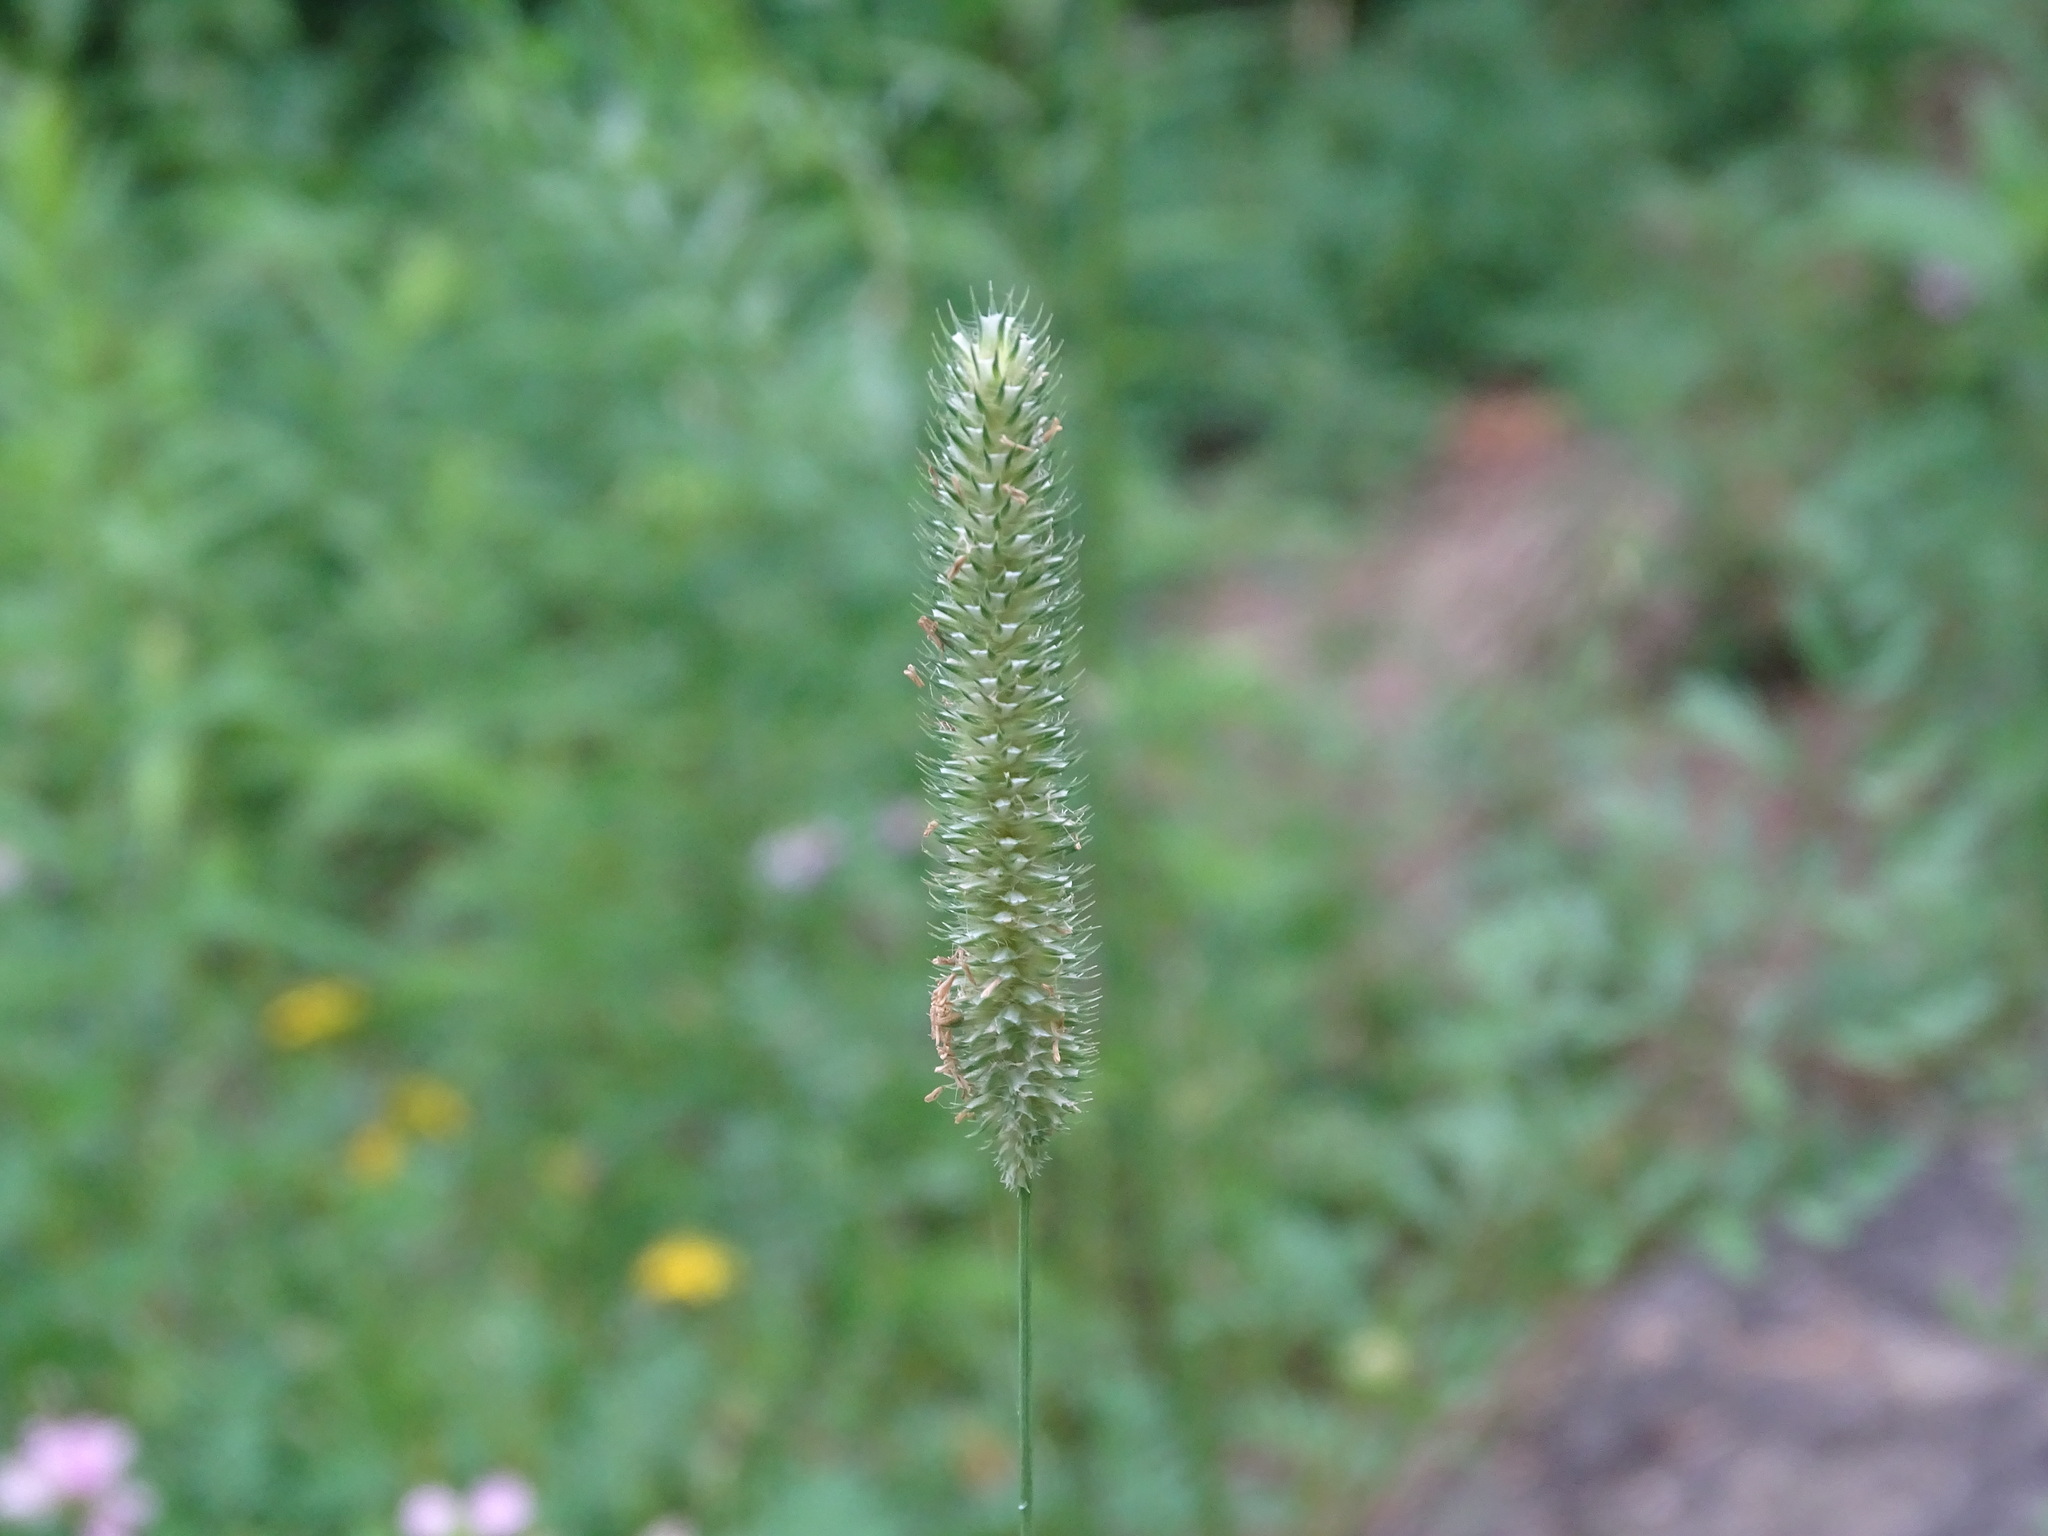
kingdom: Plantae
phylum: Tracheophyta
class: Liliopsida
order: Poales
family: Poaceae
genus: Phleum
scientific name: Phleum pratense
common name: Timothy grass
